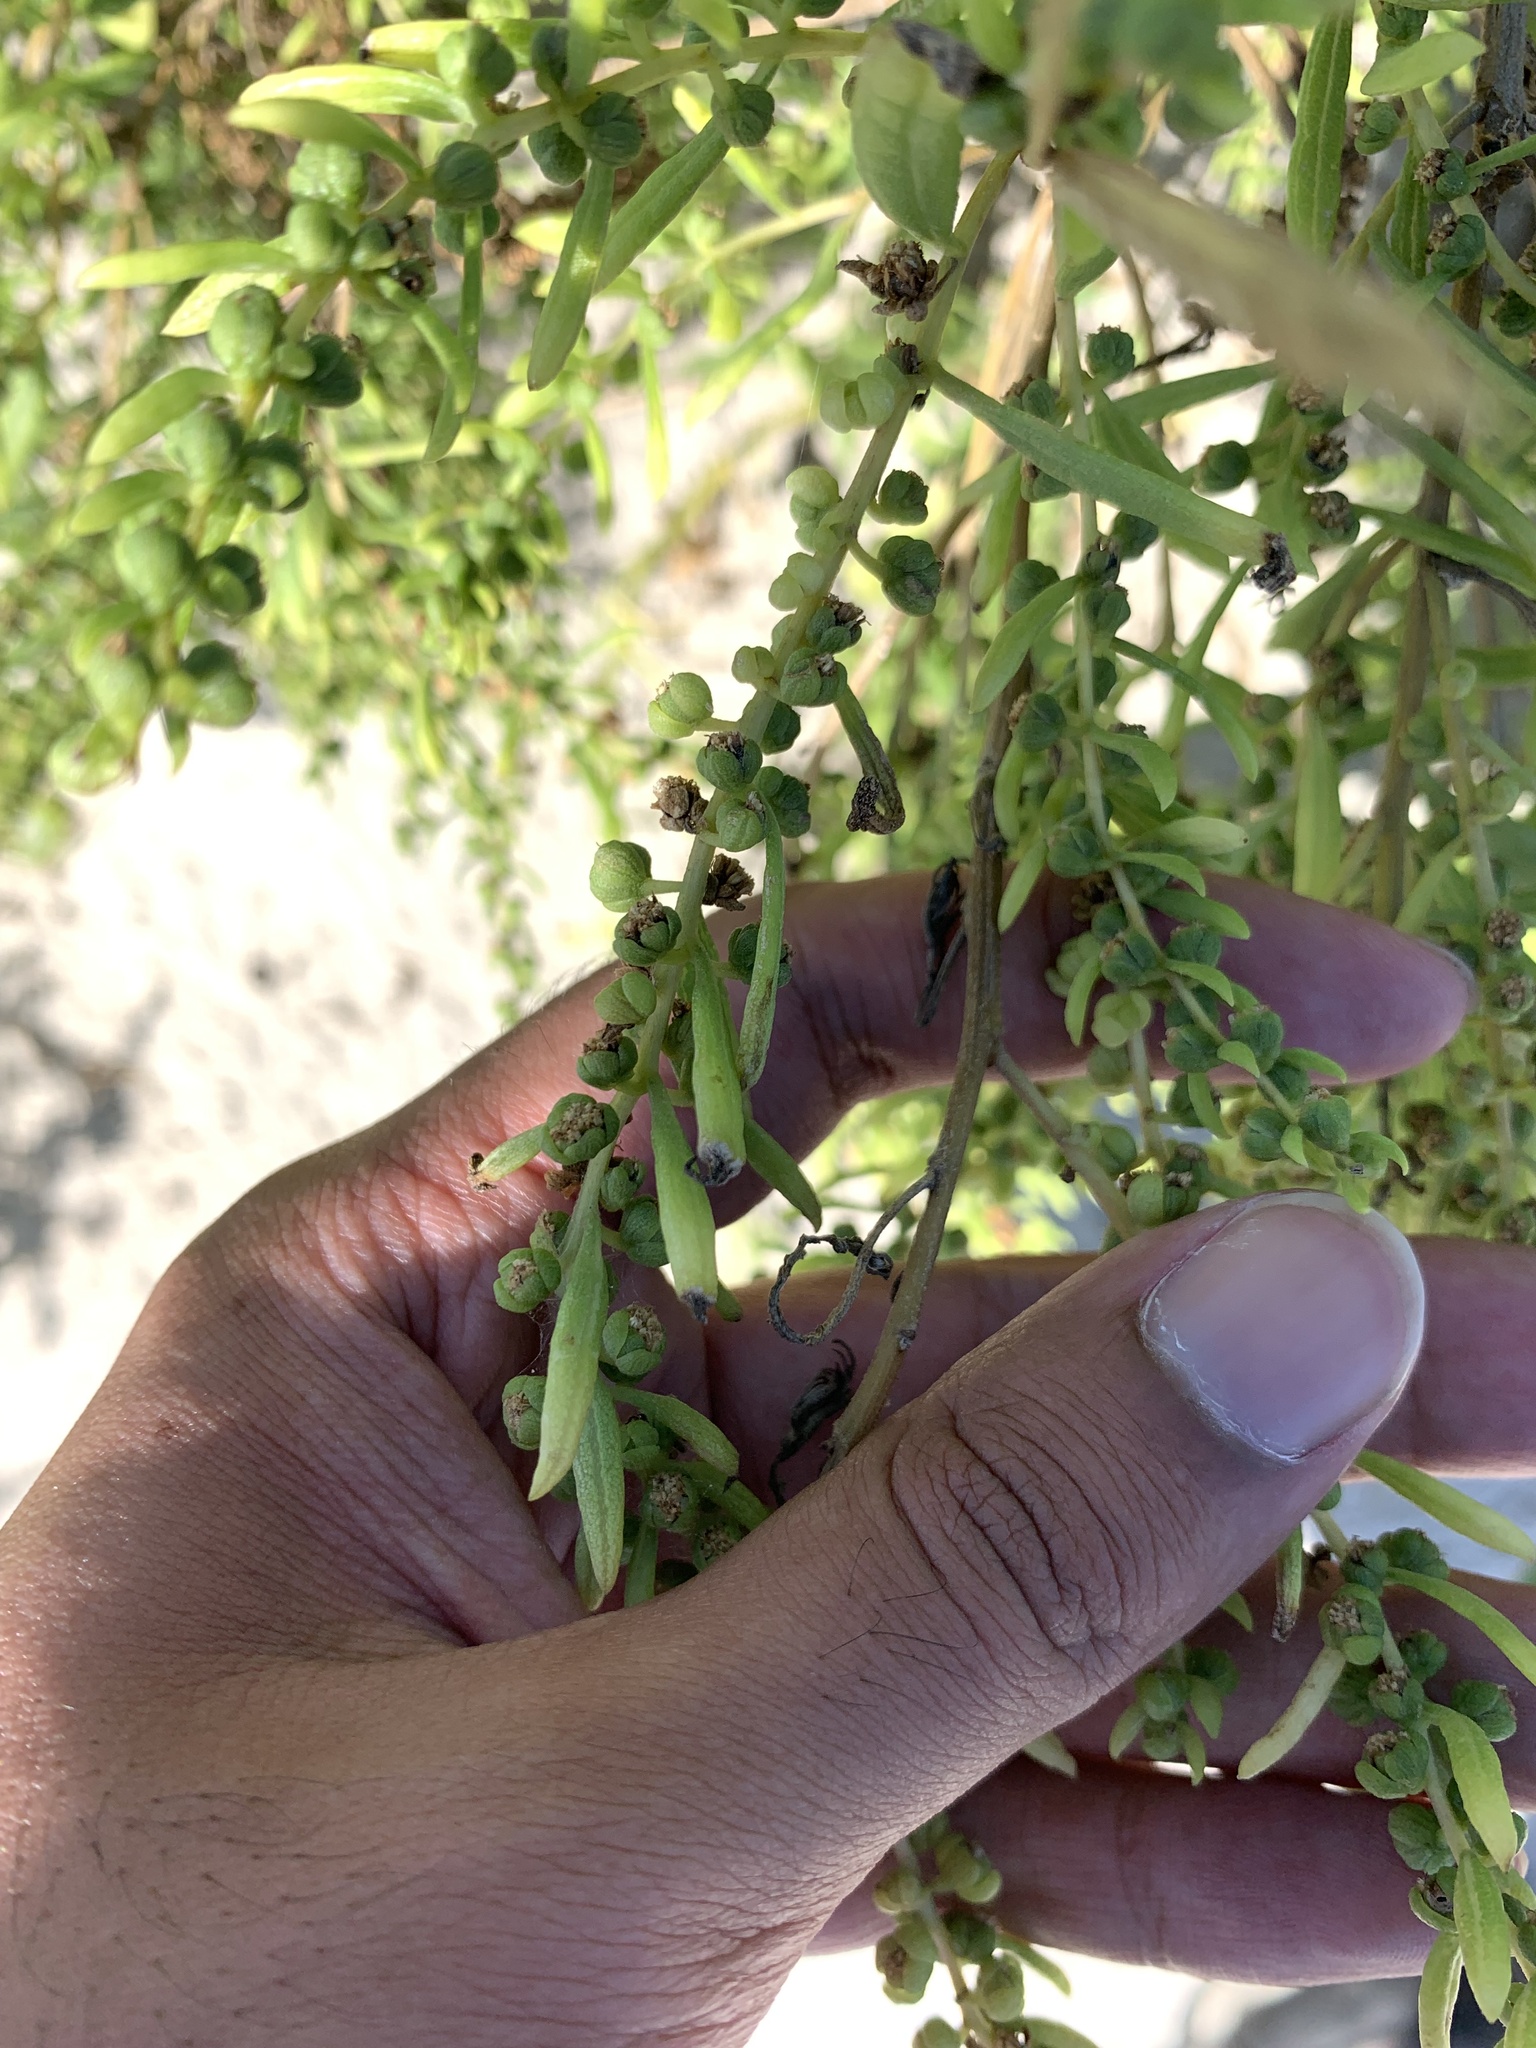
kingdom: Plantae
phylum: Tracheophyta
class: Magnoliopsida
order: Asterales
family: Asteraceae
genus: Iva
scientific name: Iva imbricata
